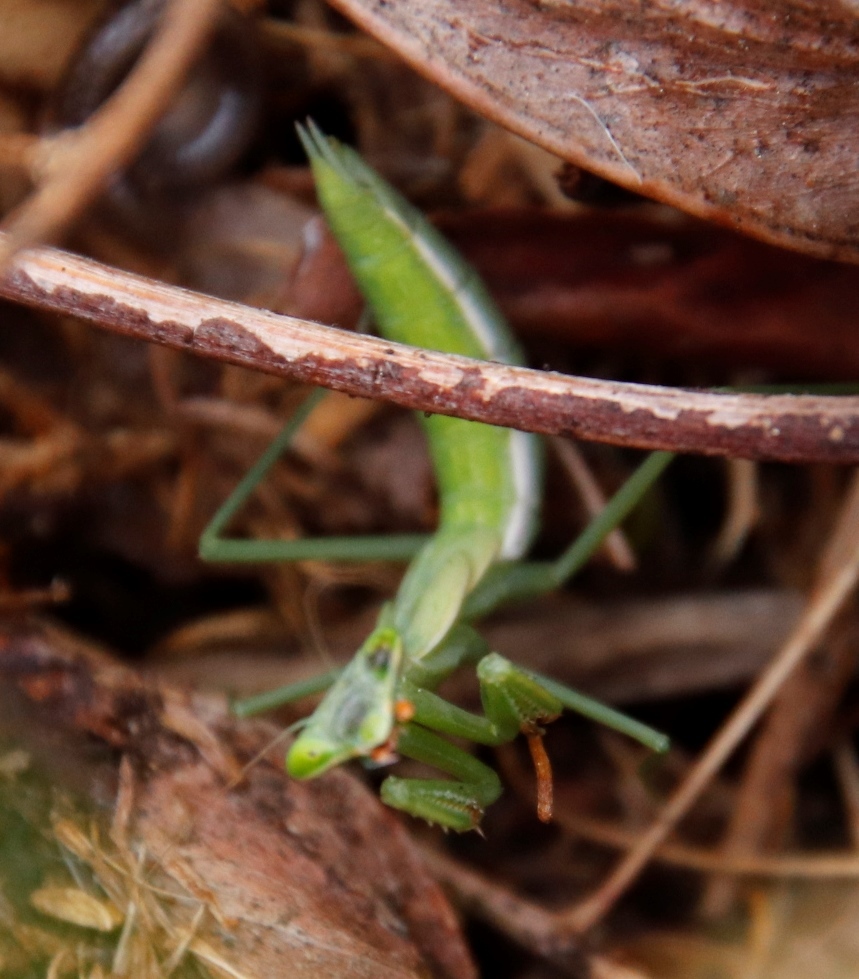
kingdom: Animalia
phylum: Arthropoda
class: Insecta
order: Mantodea
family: Miomantidae
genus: Miomantis
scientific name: Miomantis caffra
